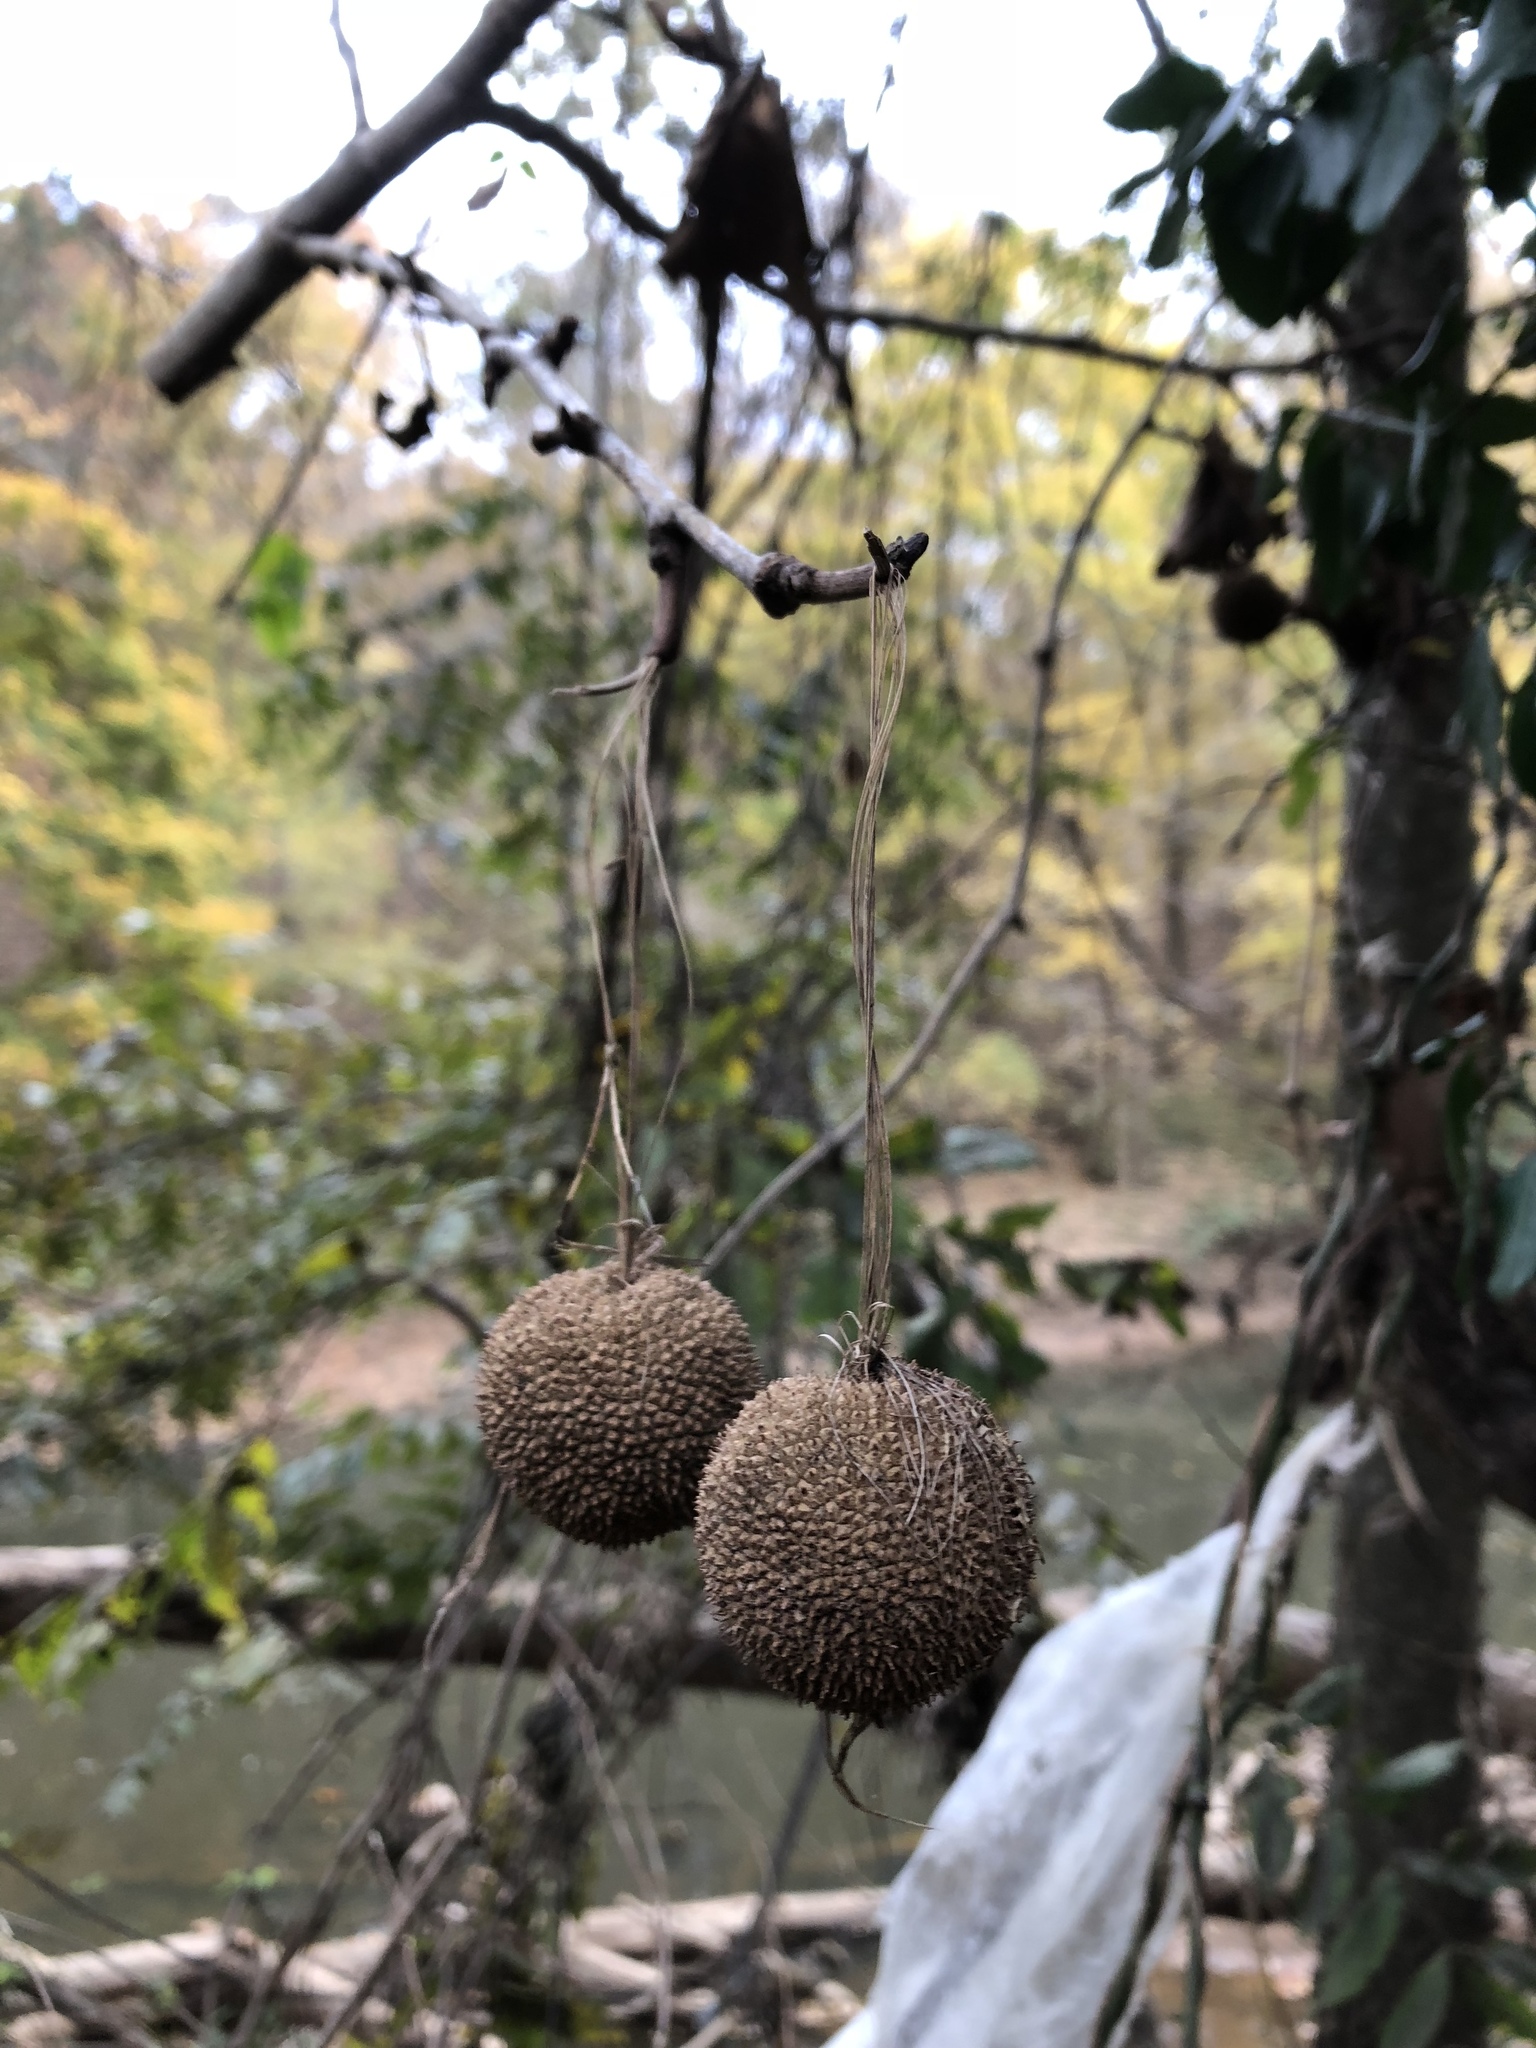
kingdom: Plantae
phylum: Tracheophyta
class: Magnoliopsida
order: Proteales
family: Platanaceae
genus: Platanus
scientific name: Platanus occidentalis
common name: American sycamore
